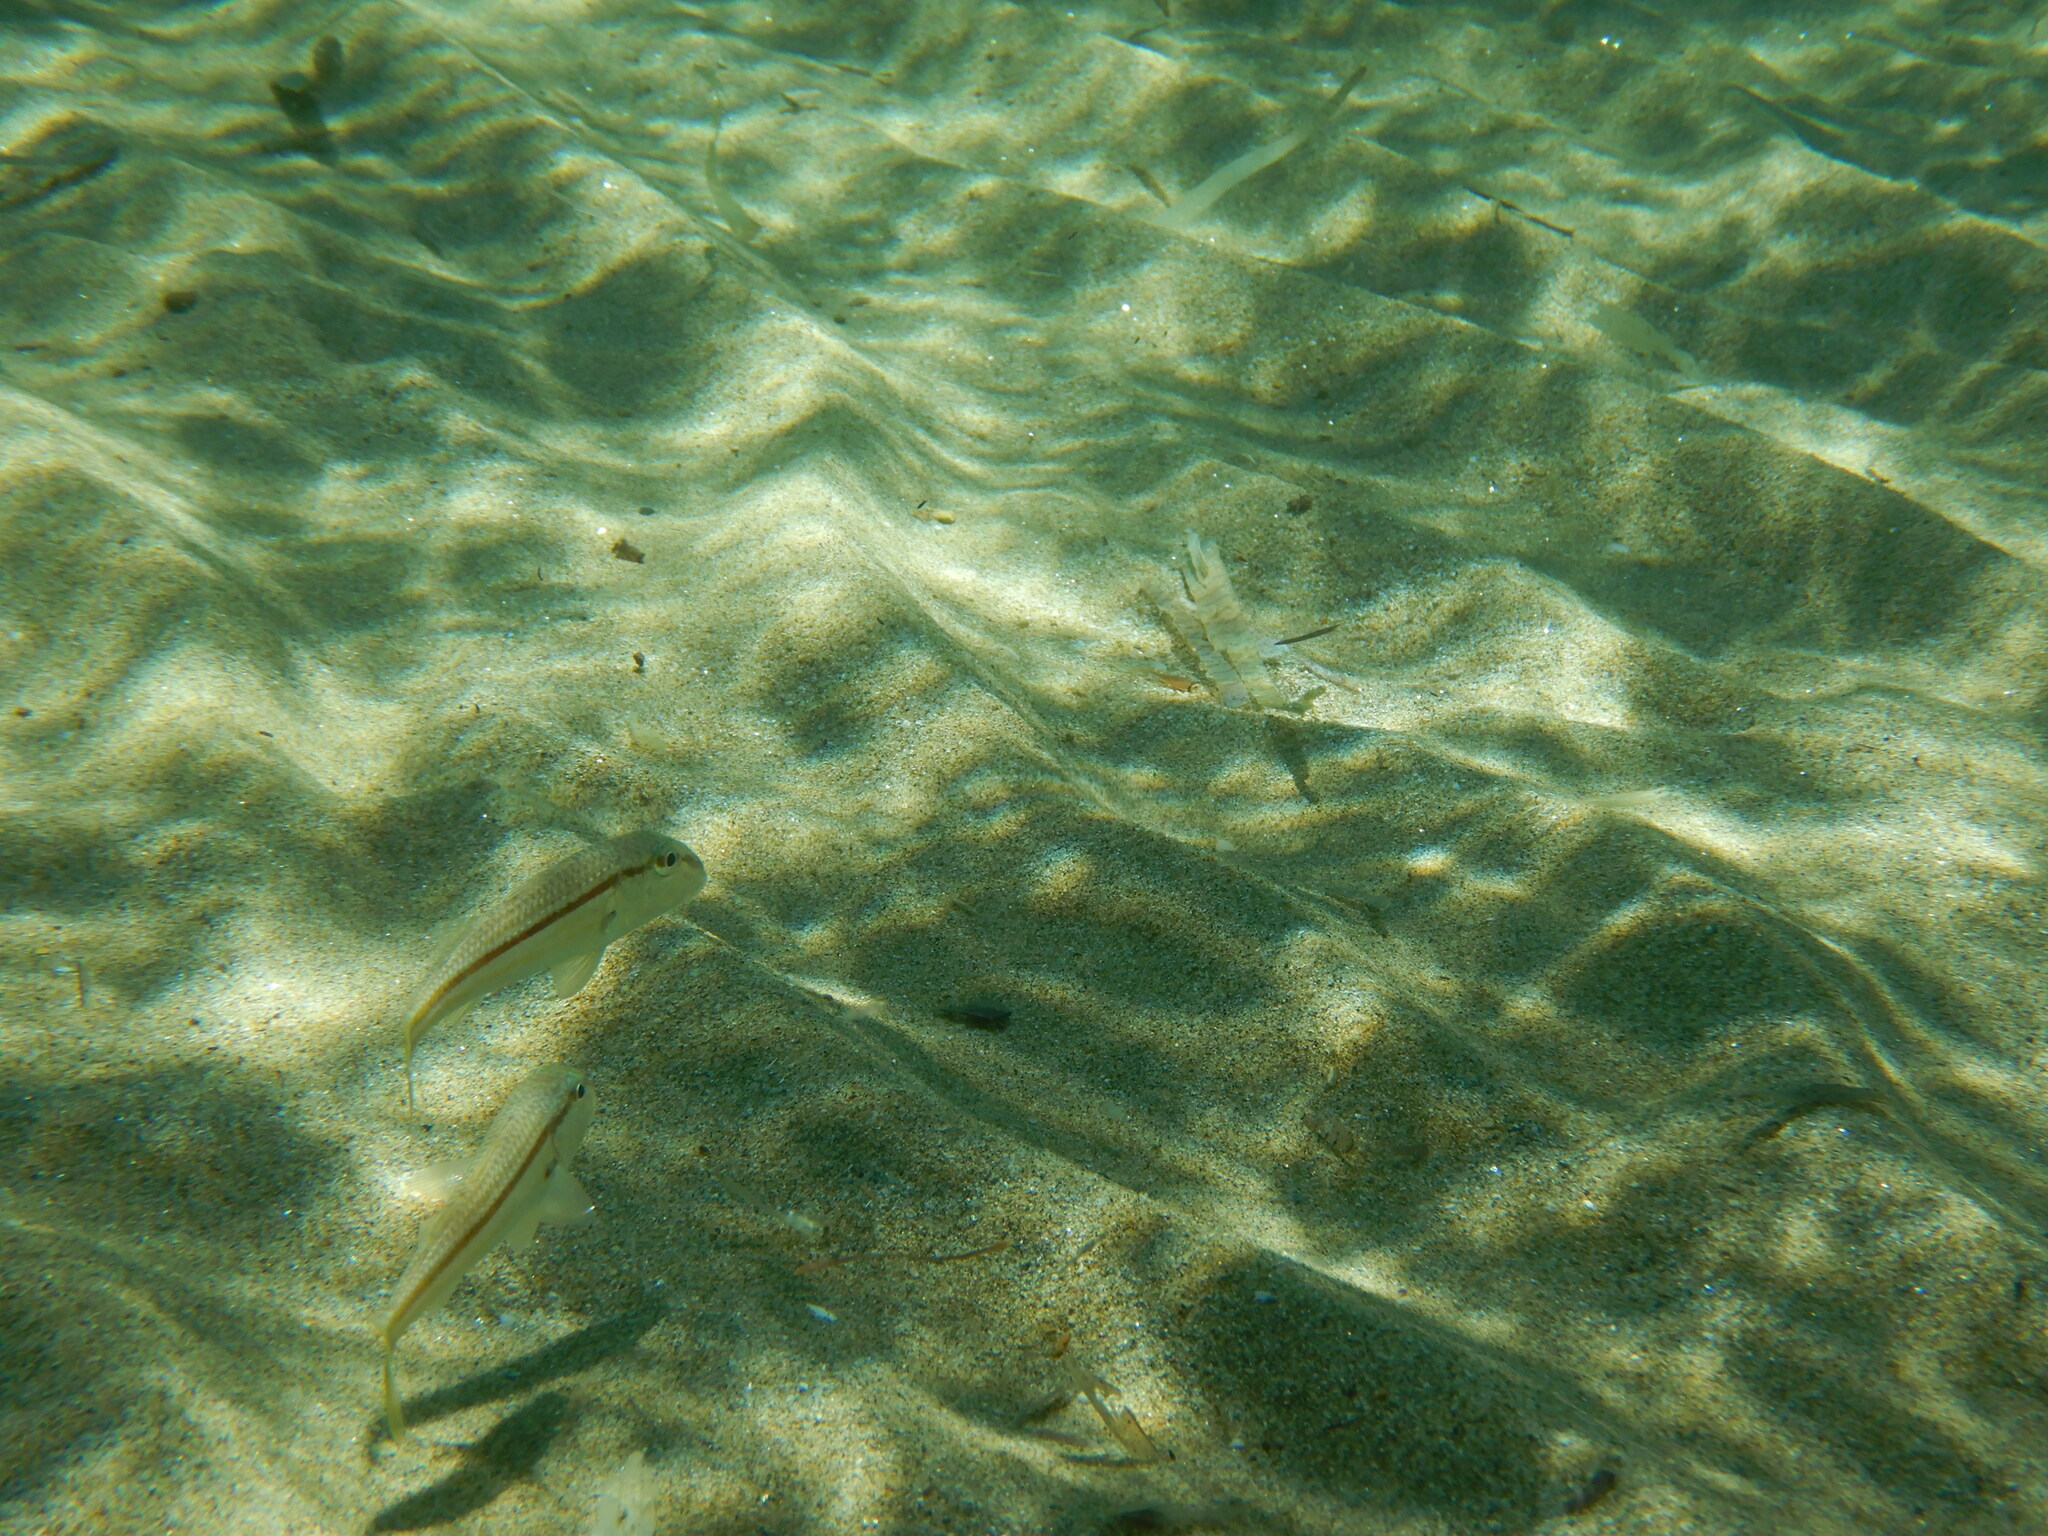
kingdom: Animalia
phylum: Chordata
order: Perciformes
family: Mullidae
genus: Mullus
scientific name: Mullus barbatus
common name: Blunt-snouted mullet
